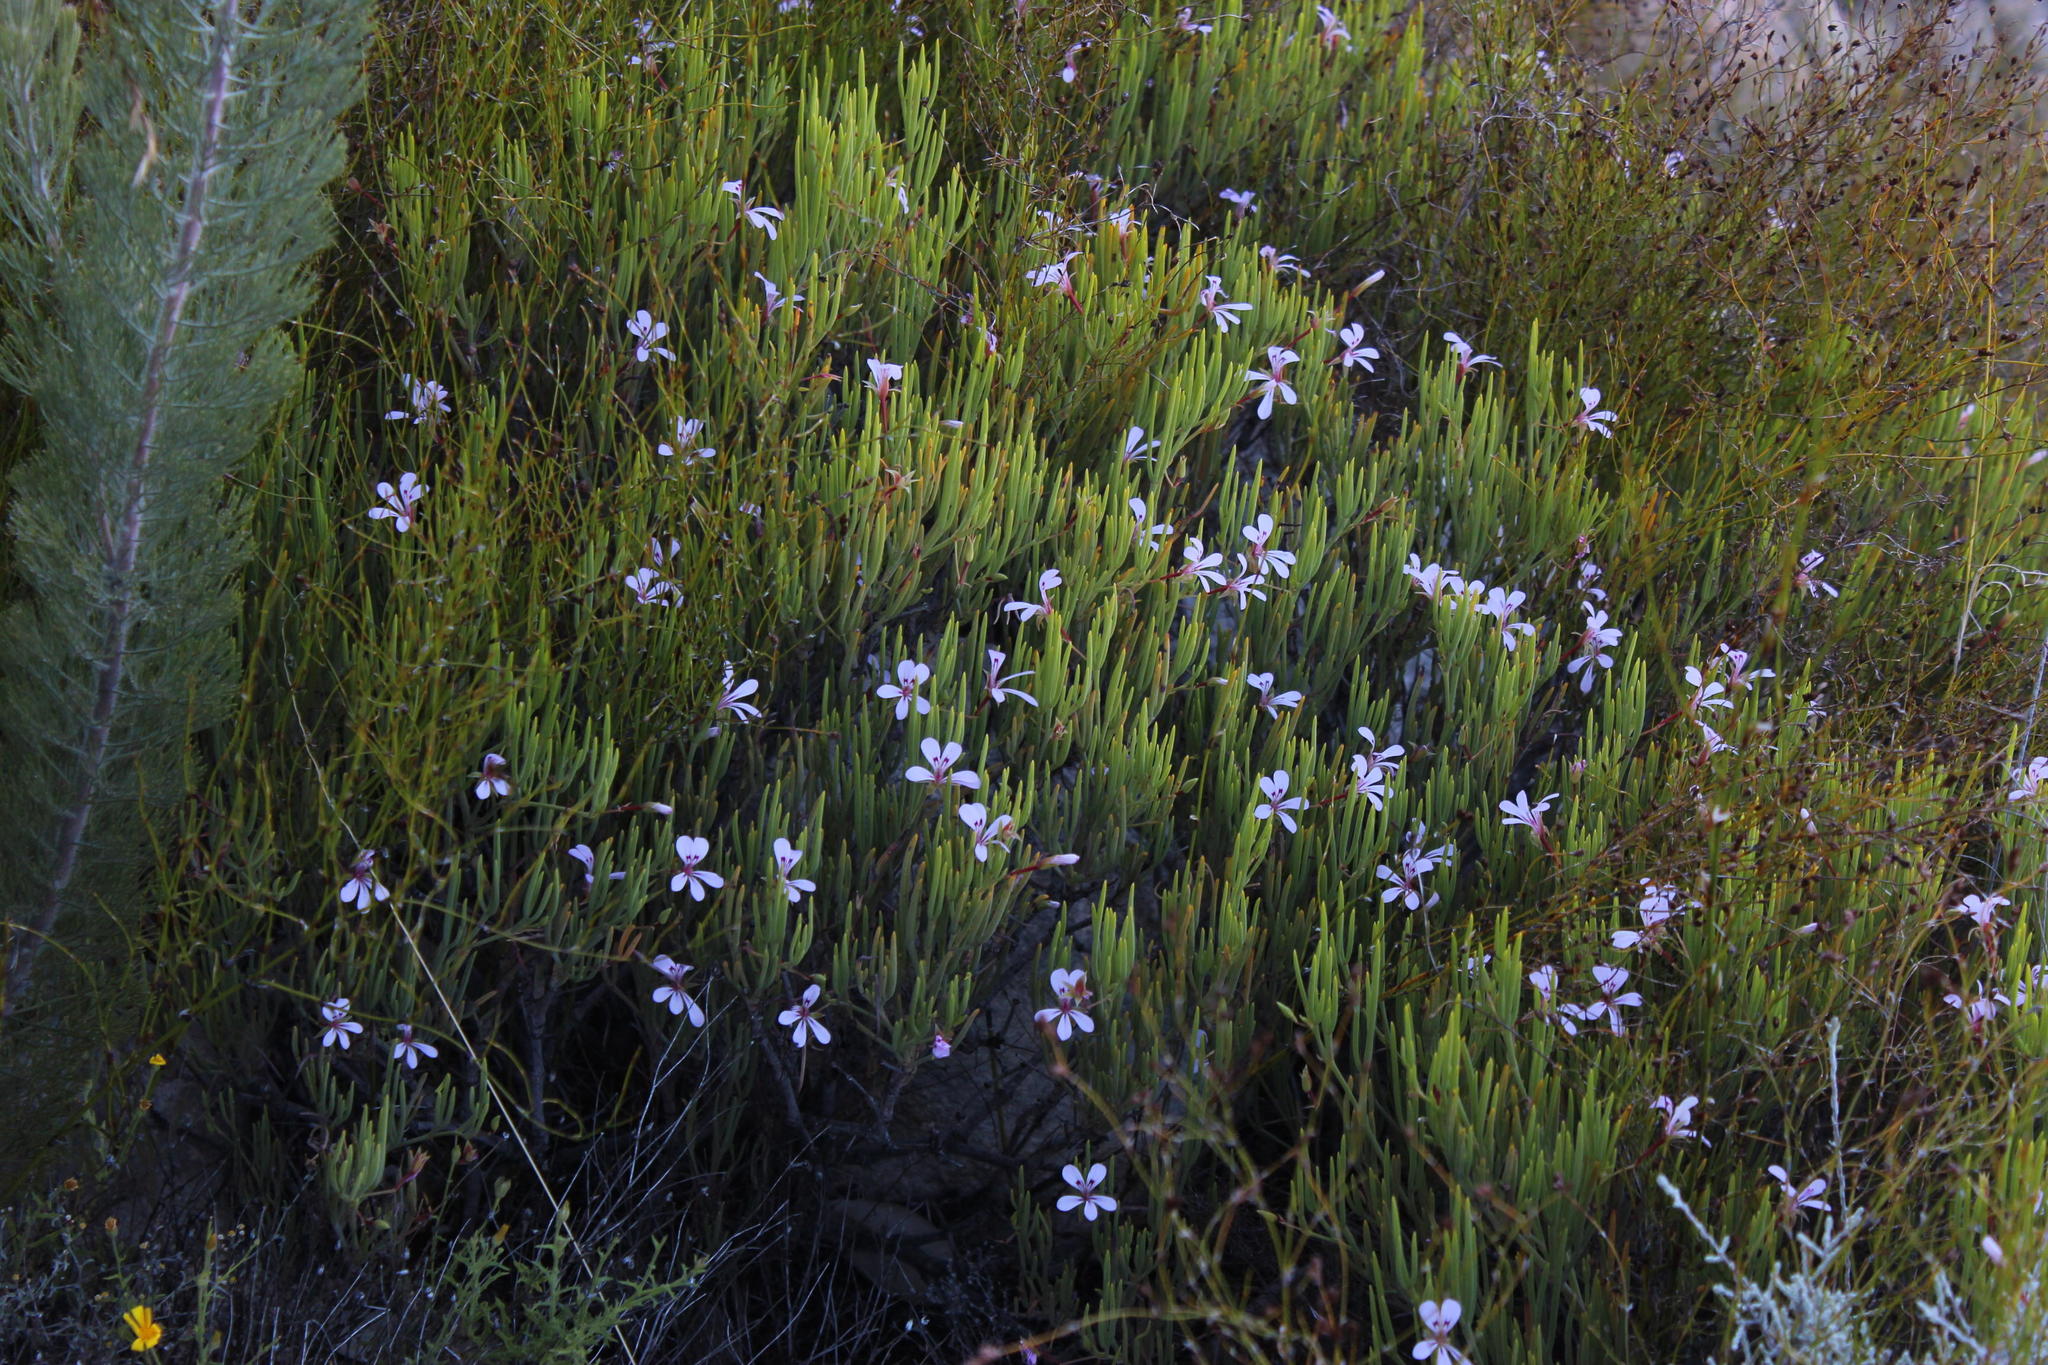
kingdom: Plantae
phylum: Tracheophyta
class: Magnoliopsida
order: Geraniales
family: Geraniaceae
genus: Pelargonium
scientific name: Pelargonium laevigatum
